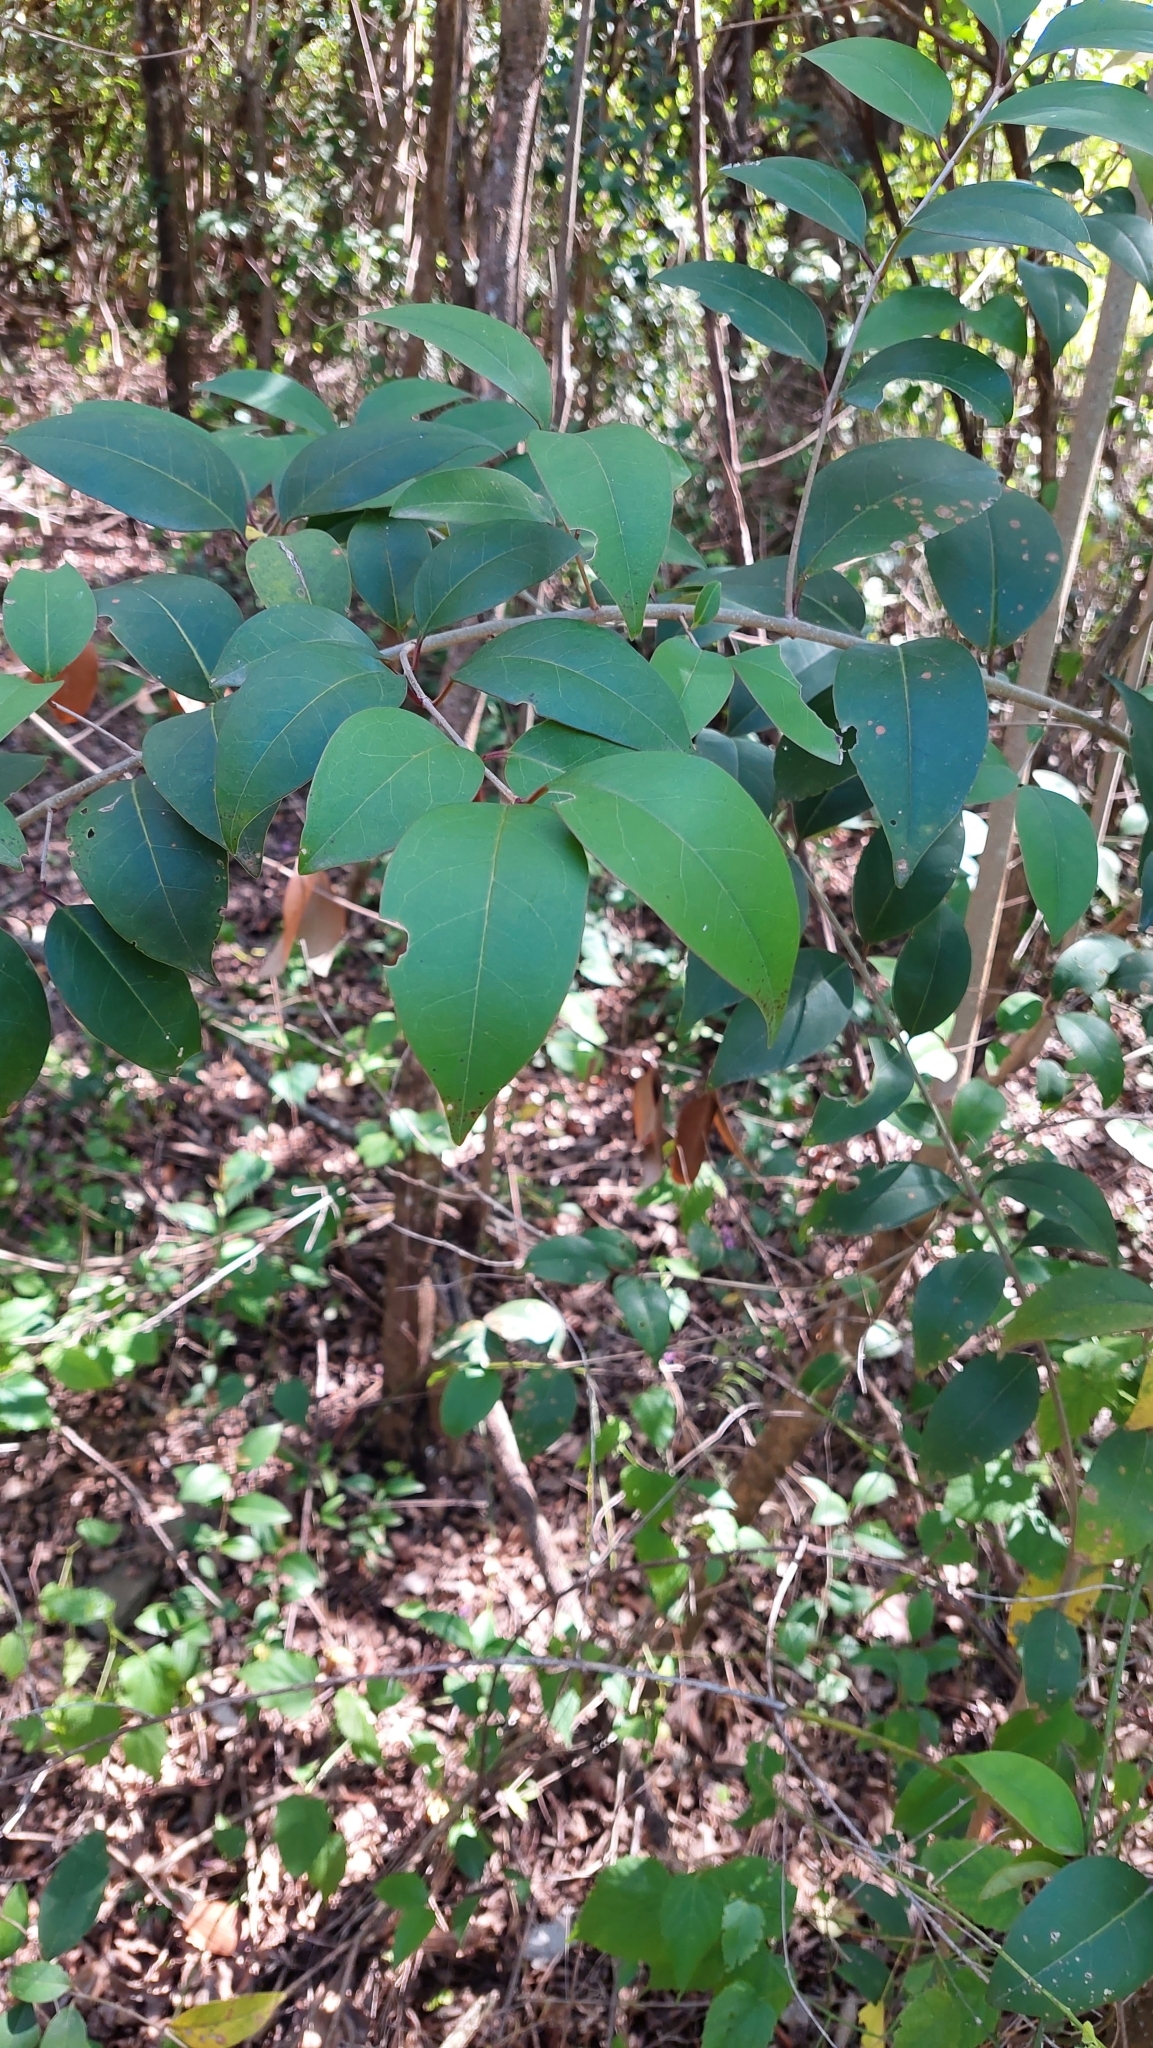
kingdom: Plantae
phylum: Tracheophyta
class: Magnoliopsida
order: Lamiales
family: Oleaceae
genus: Ligustrum
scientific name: Ligustrum lucidum
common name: Glossy privet
